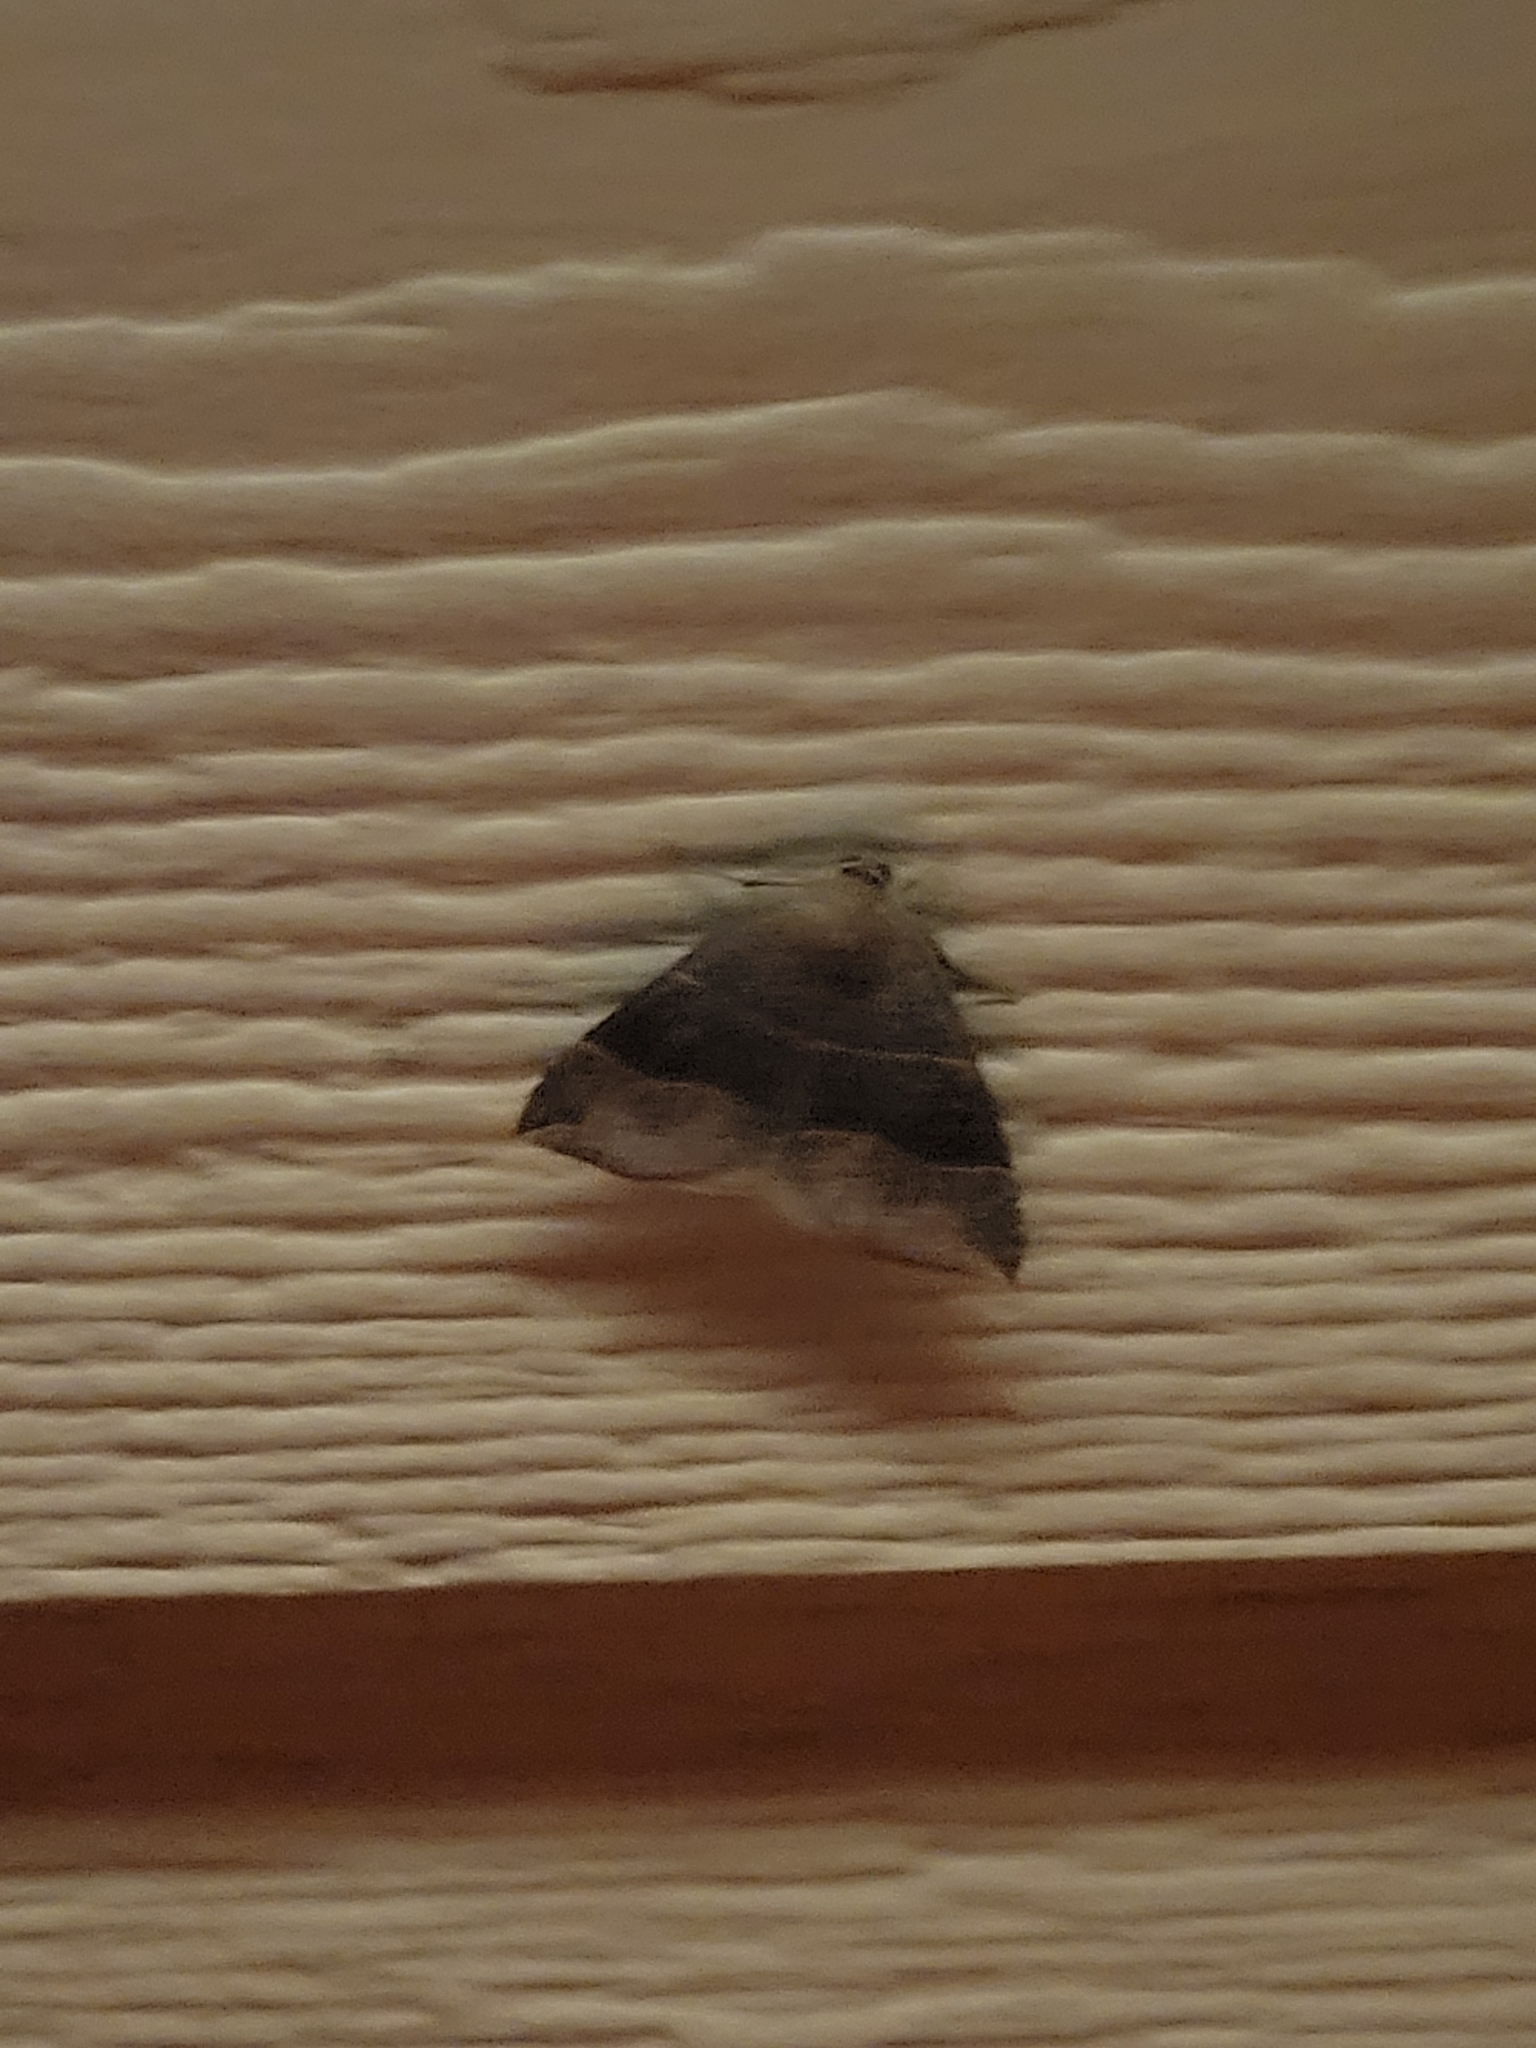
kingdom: Animalia
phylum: Arthropoda
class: Insecta
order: Lepidoptera
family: Erebidae
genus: Parallelia
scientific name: Parallelia bistriaris
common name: Maple looper moth
